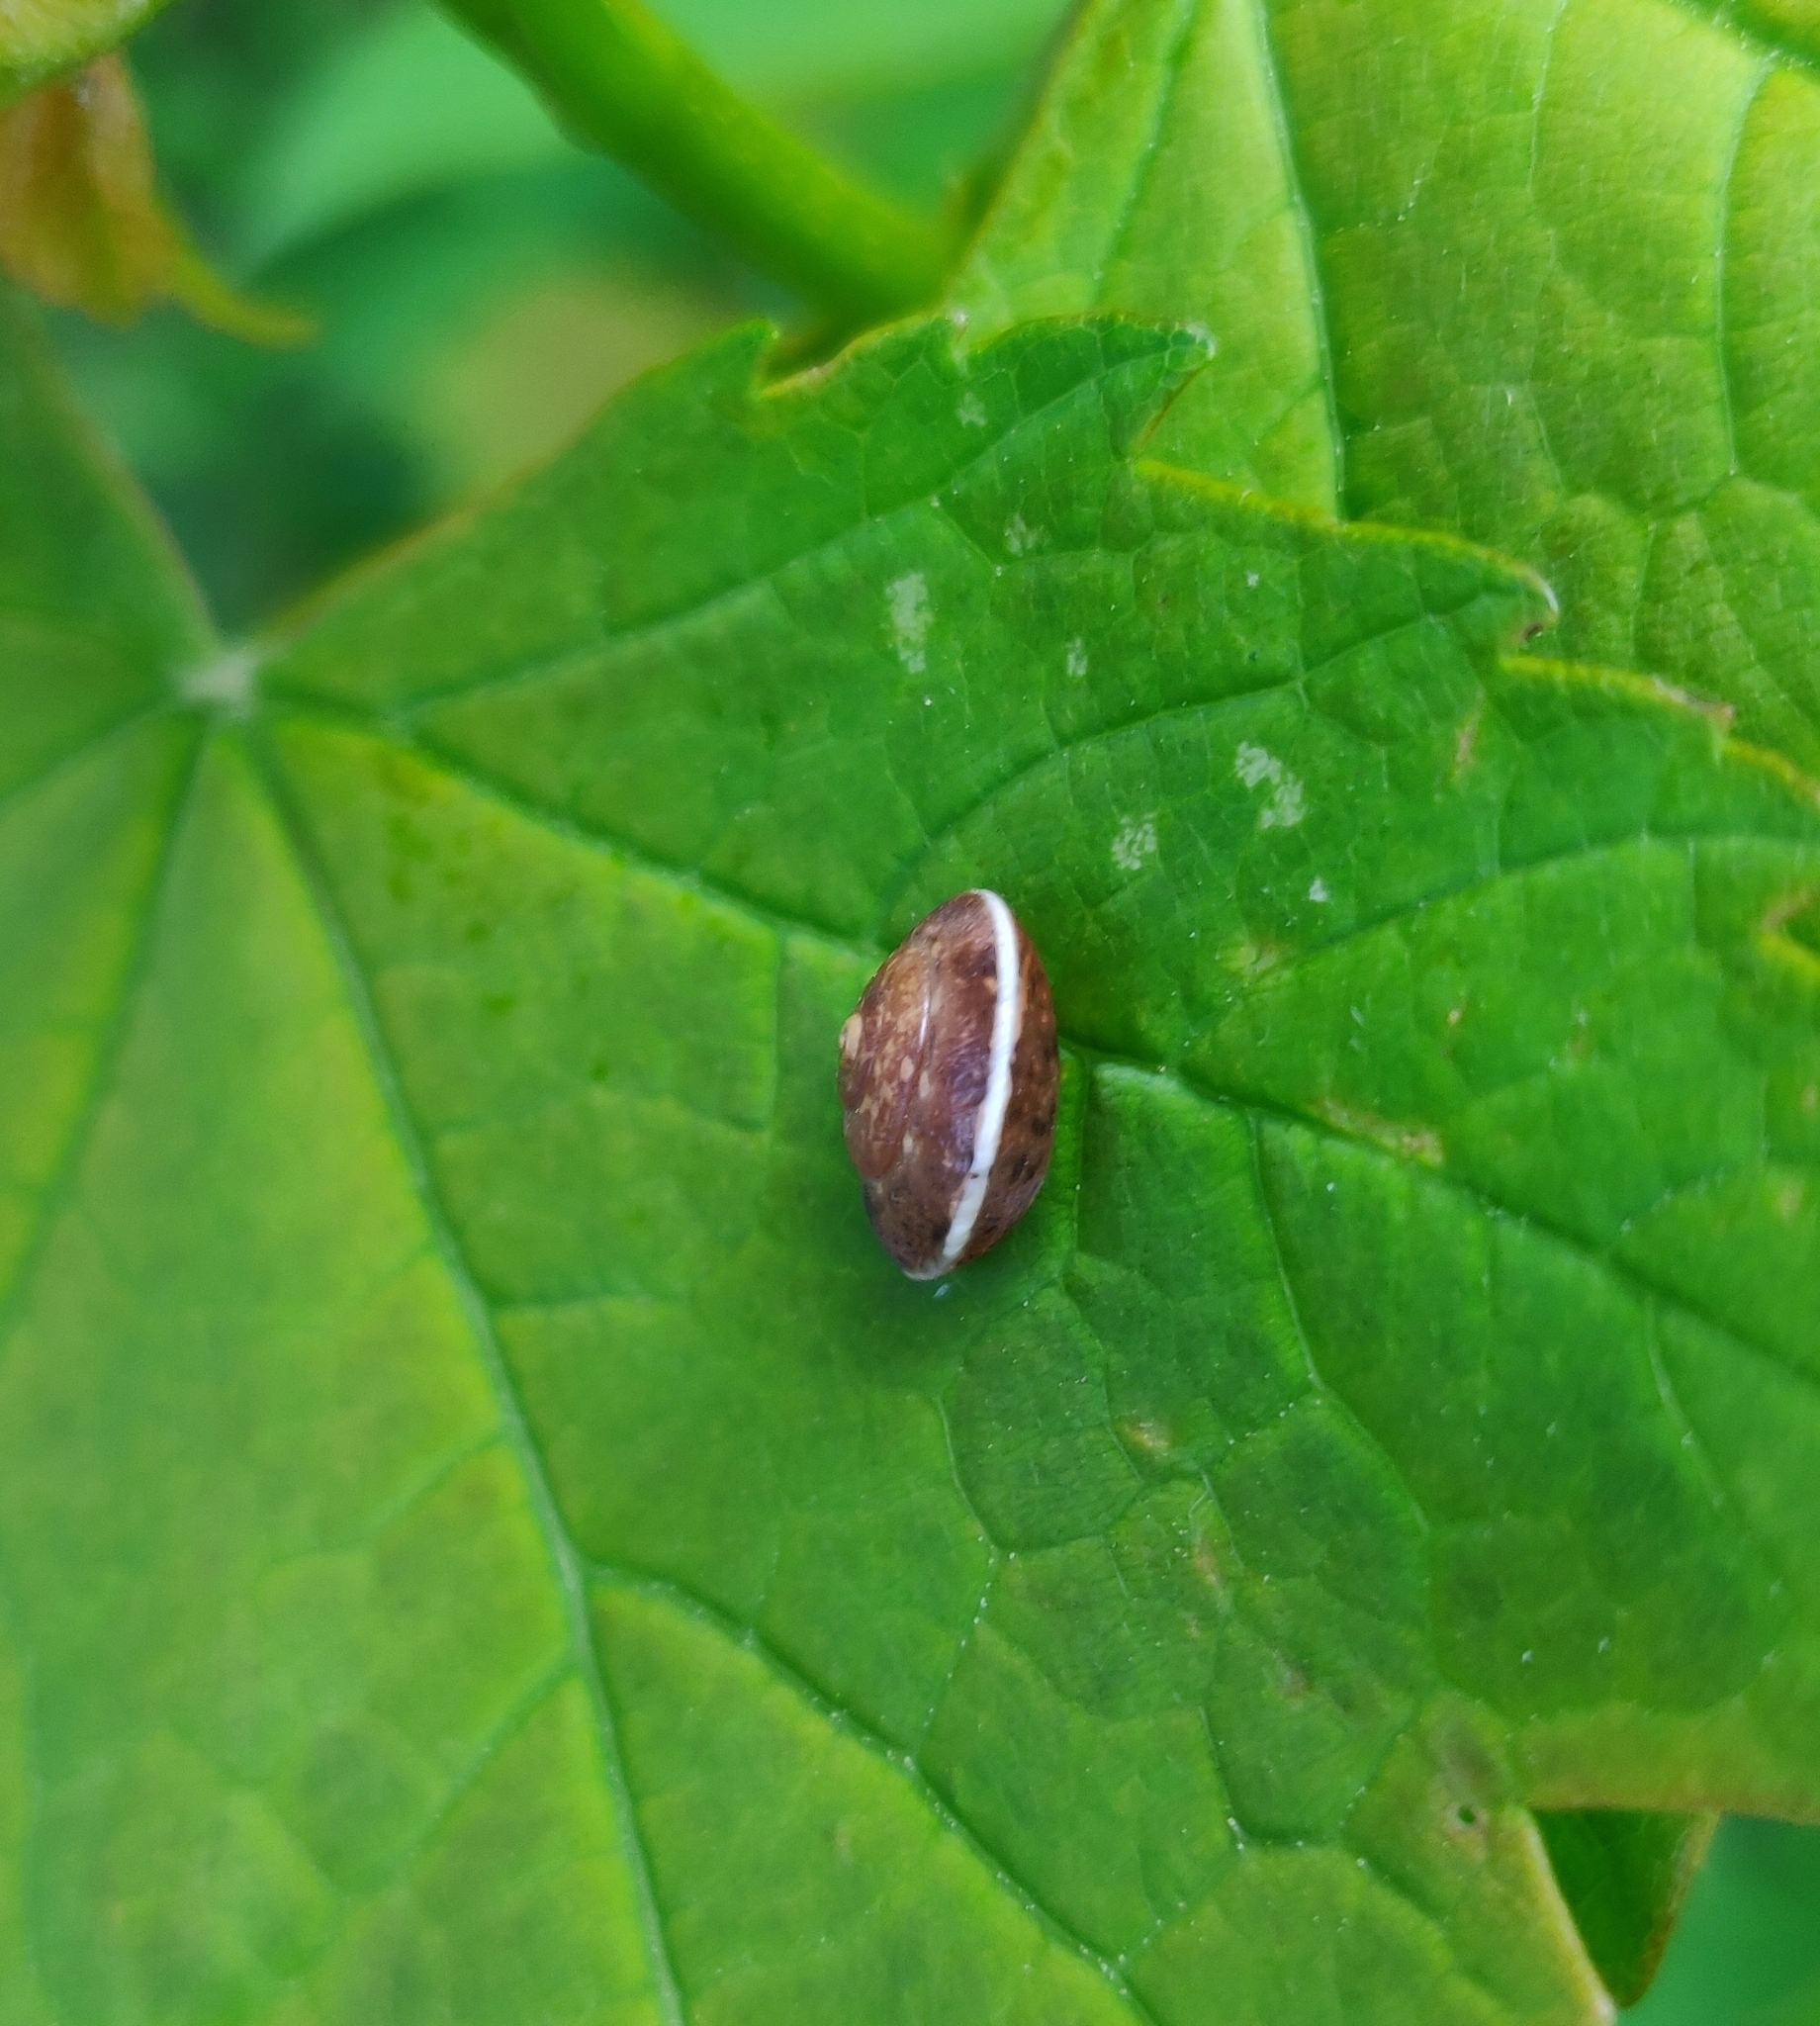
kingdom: Animalia
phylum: Mollusca
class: Gastropoda
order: Stylommatophora
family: Hygromiidae
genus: Hygromia
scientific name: Hygromia cinctella
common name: Girdled snail
